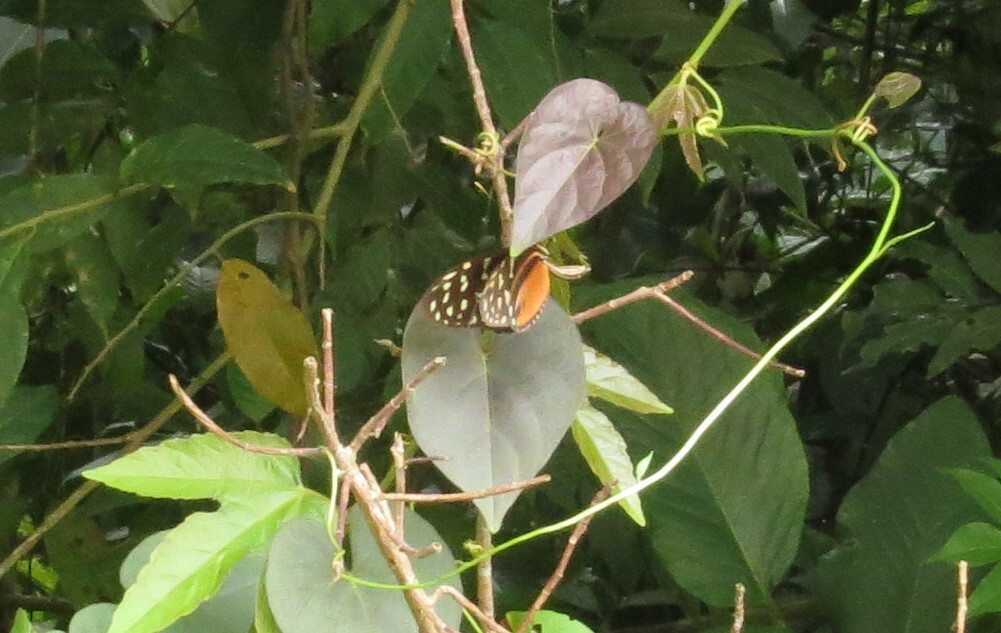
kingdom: Animalia
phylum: Arthropoda
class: Insecta
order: Lepidoptera
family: Nymphalidae
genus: Heliconius
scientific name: Heliconius hecale
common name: Tiger longwing
